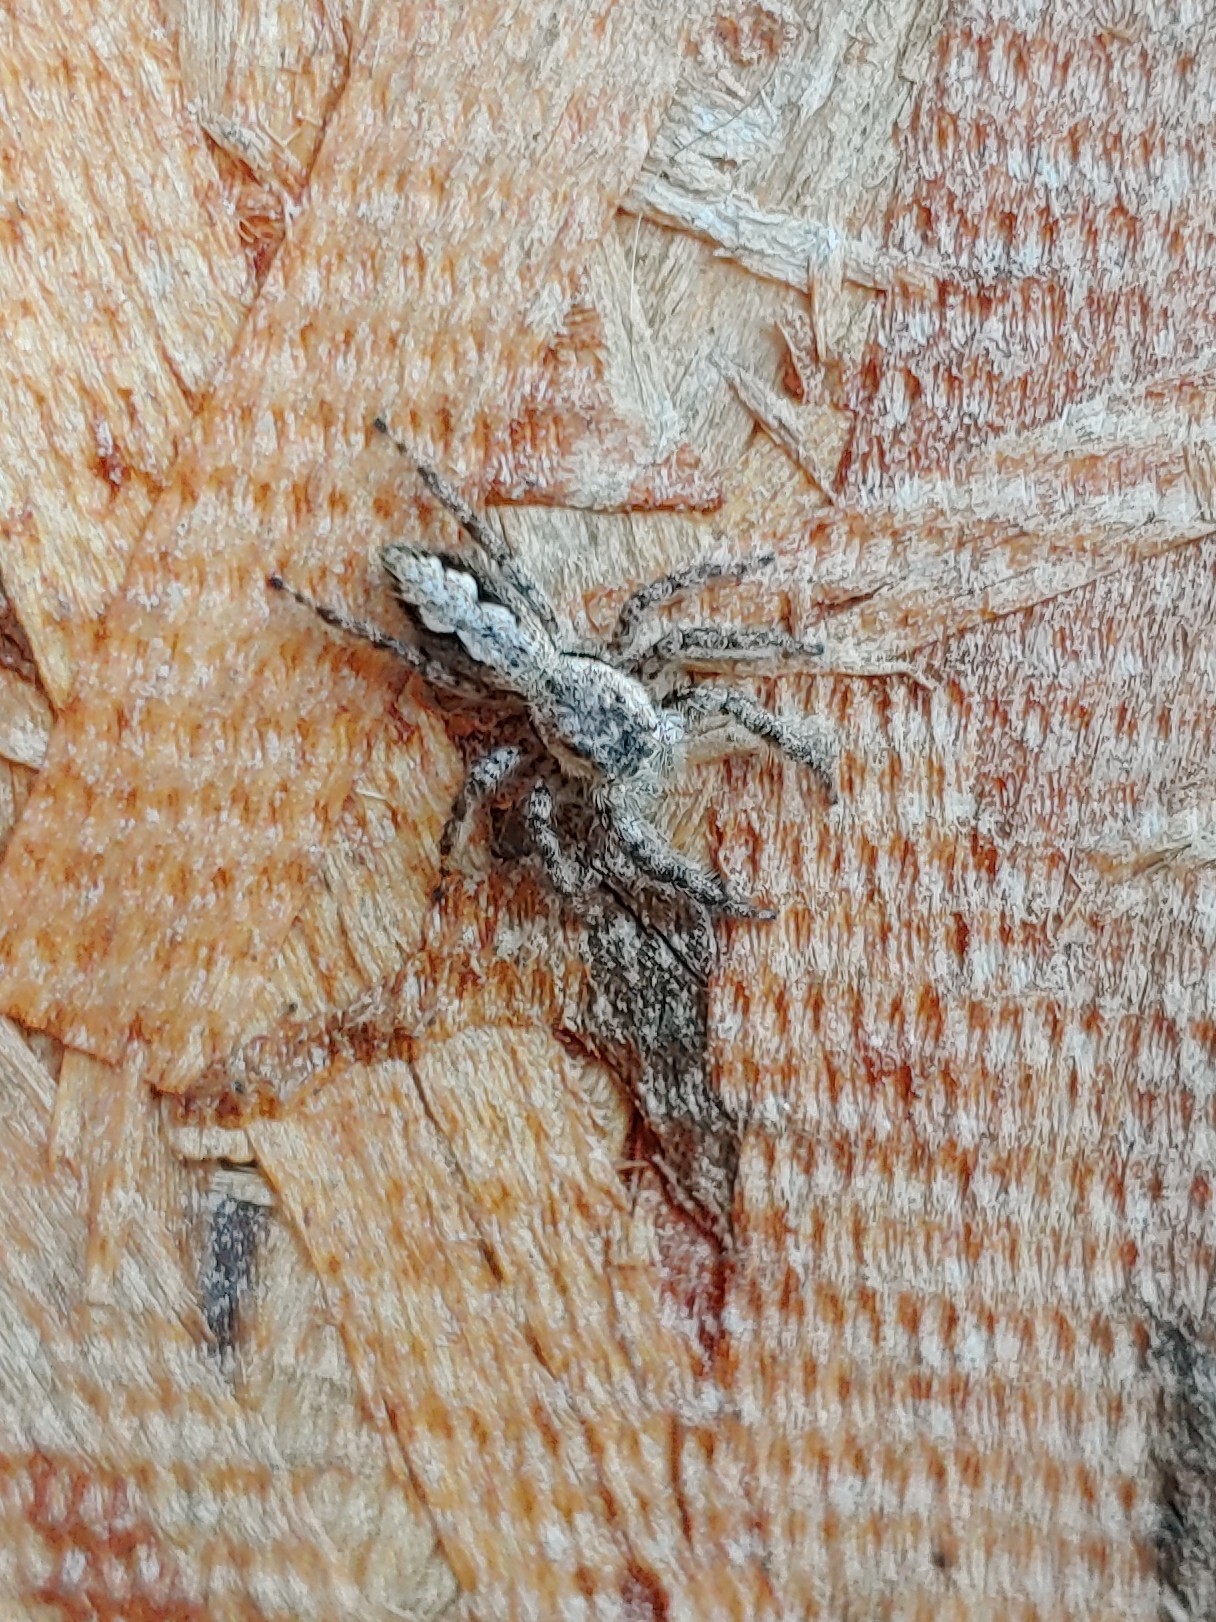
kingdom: Animalia
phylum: Arthropoda
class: Arachnida
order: Araneae
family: Salticidae
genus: Platycryptus
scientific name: Platycryptus undatus
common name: Tan jumping spider
